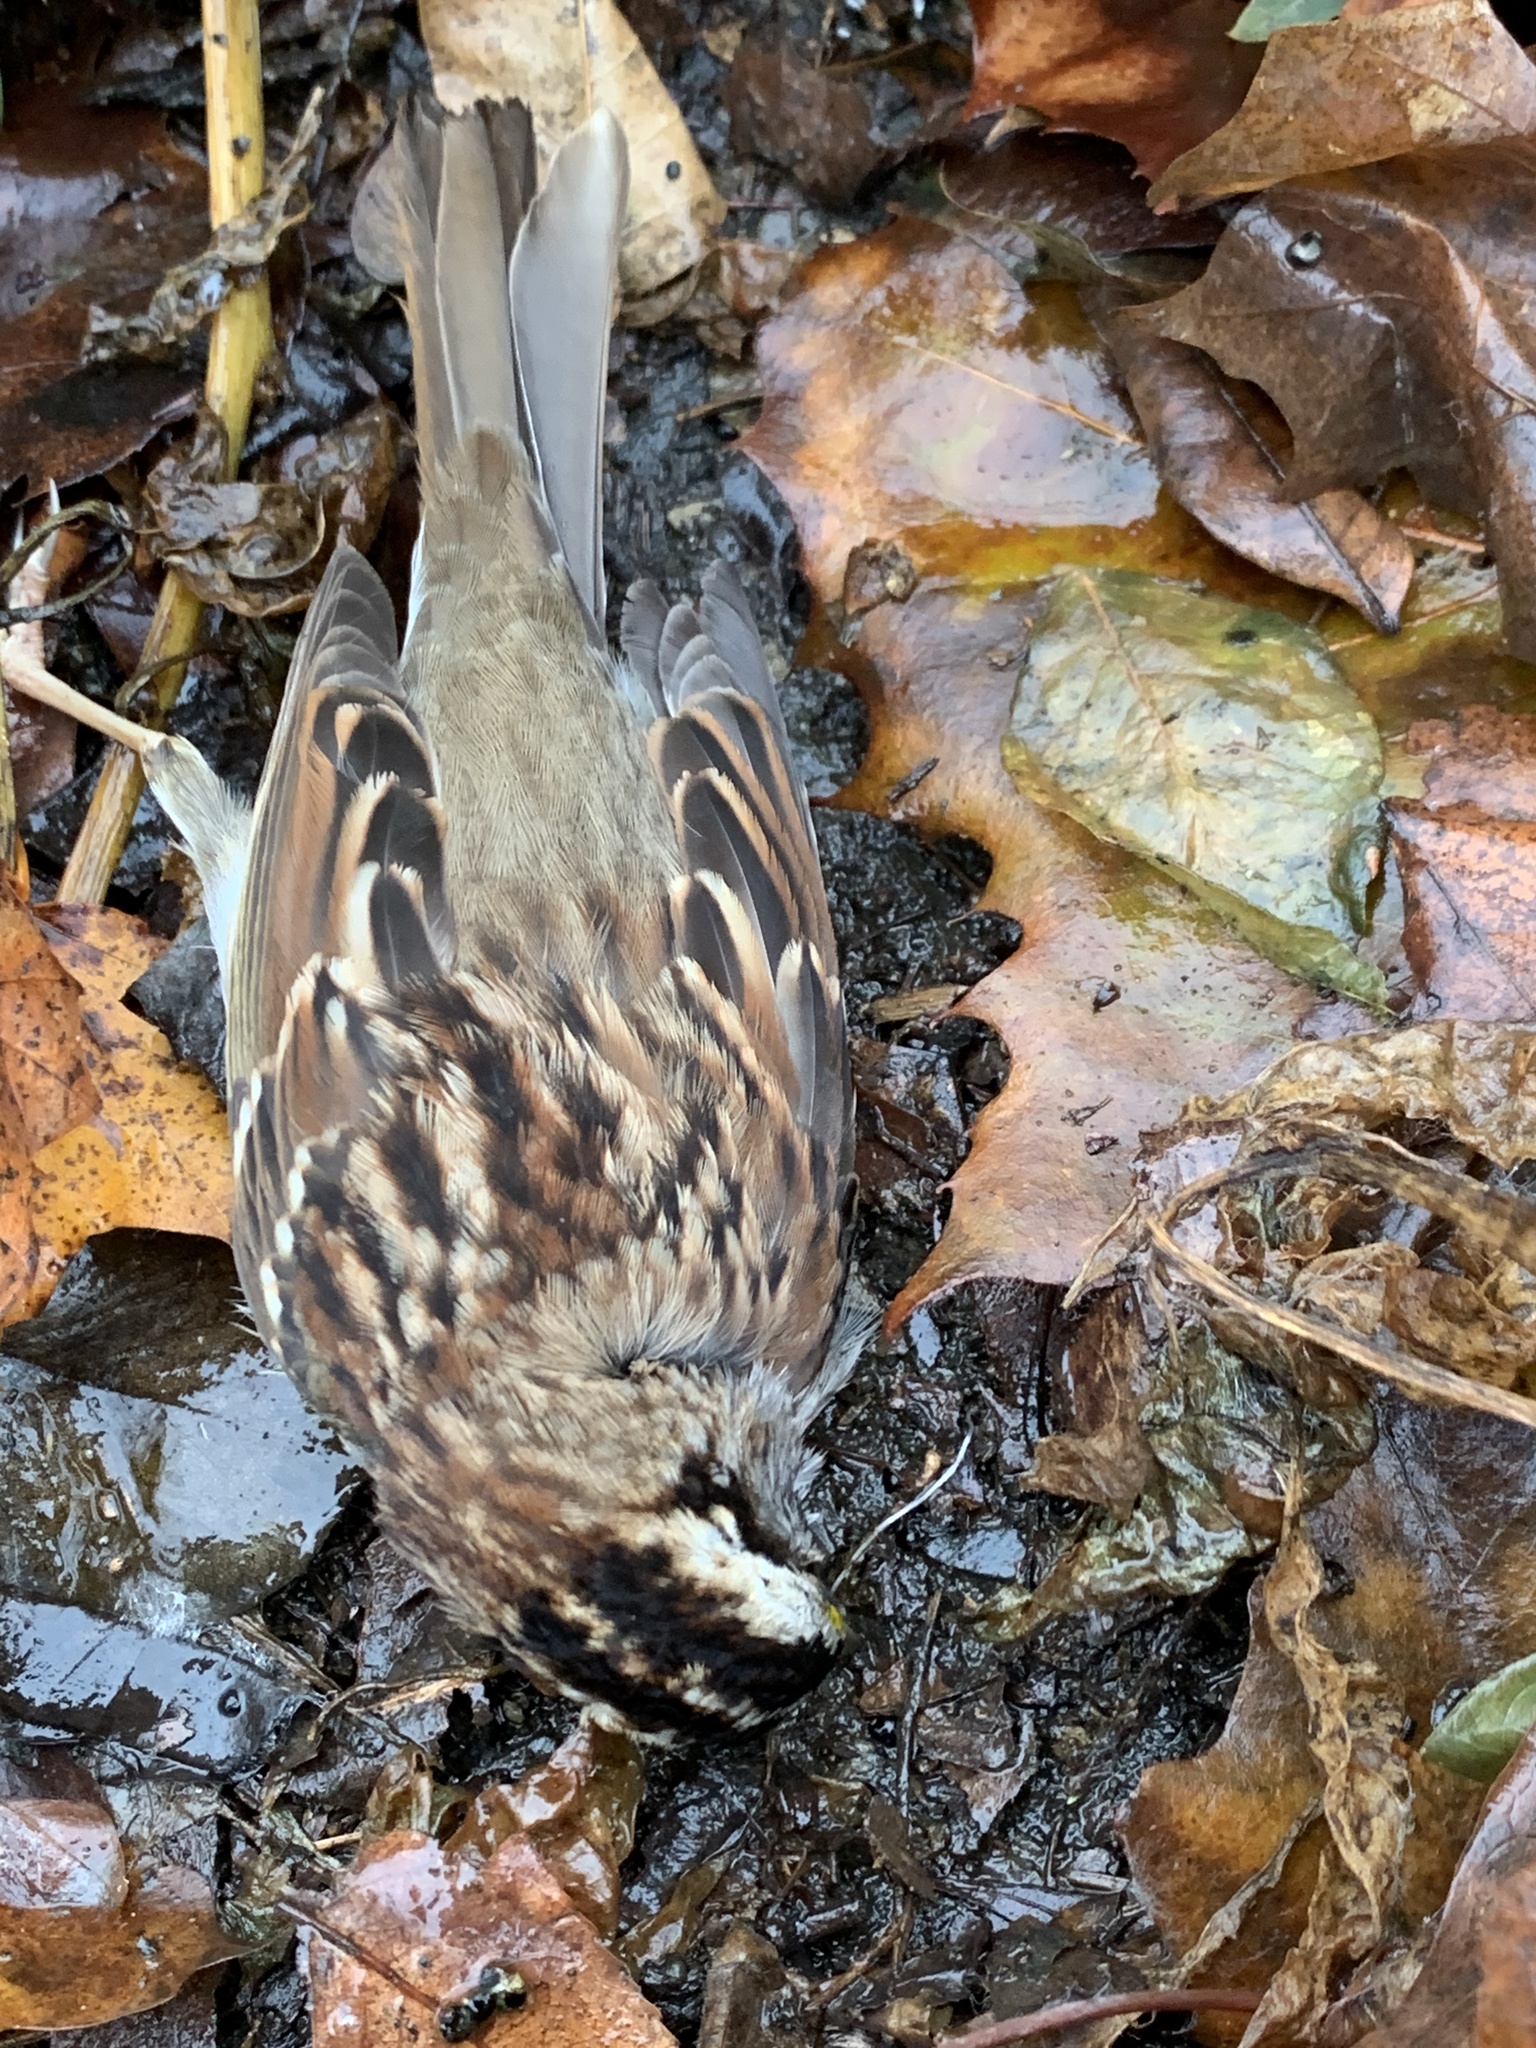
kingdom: Animalia
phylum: Chordata
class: Aves
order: Passeriformes
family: Passerellidae
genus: Zonotrichia
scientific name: Zonotrichia albicollis
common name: White-throated sparrow
